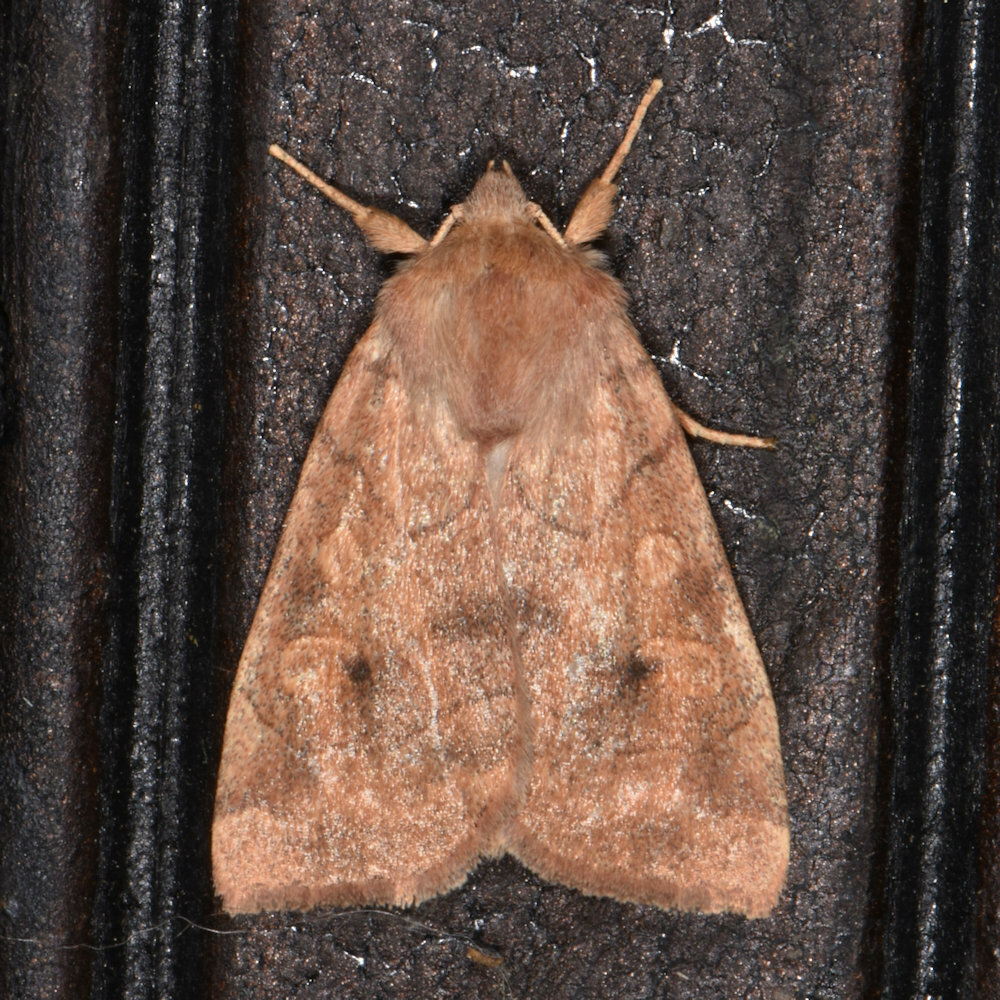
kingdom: Animalia
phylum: Arthropoda
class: Insecta
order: Lepidoptera
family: Noctuidae
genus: Agrochola
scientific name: Agrochola bicolorago
